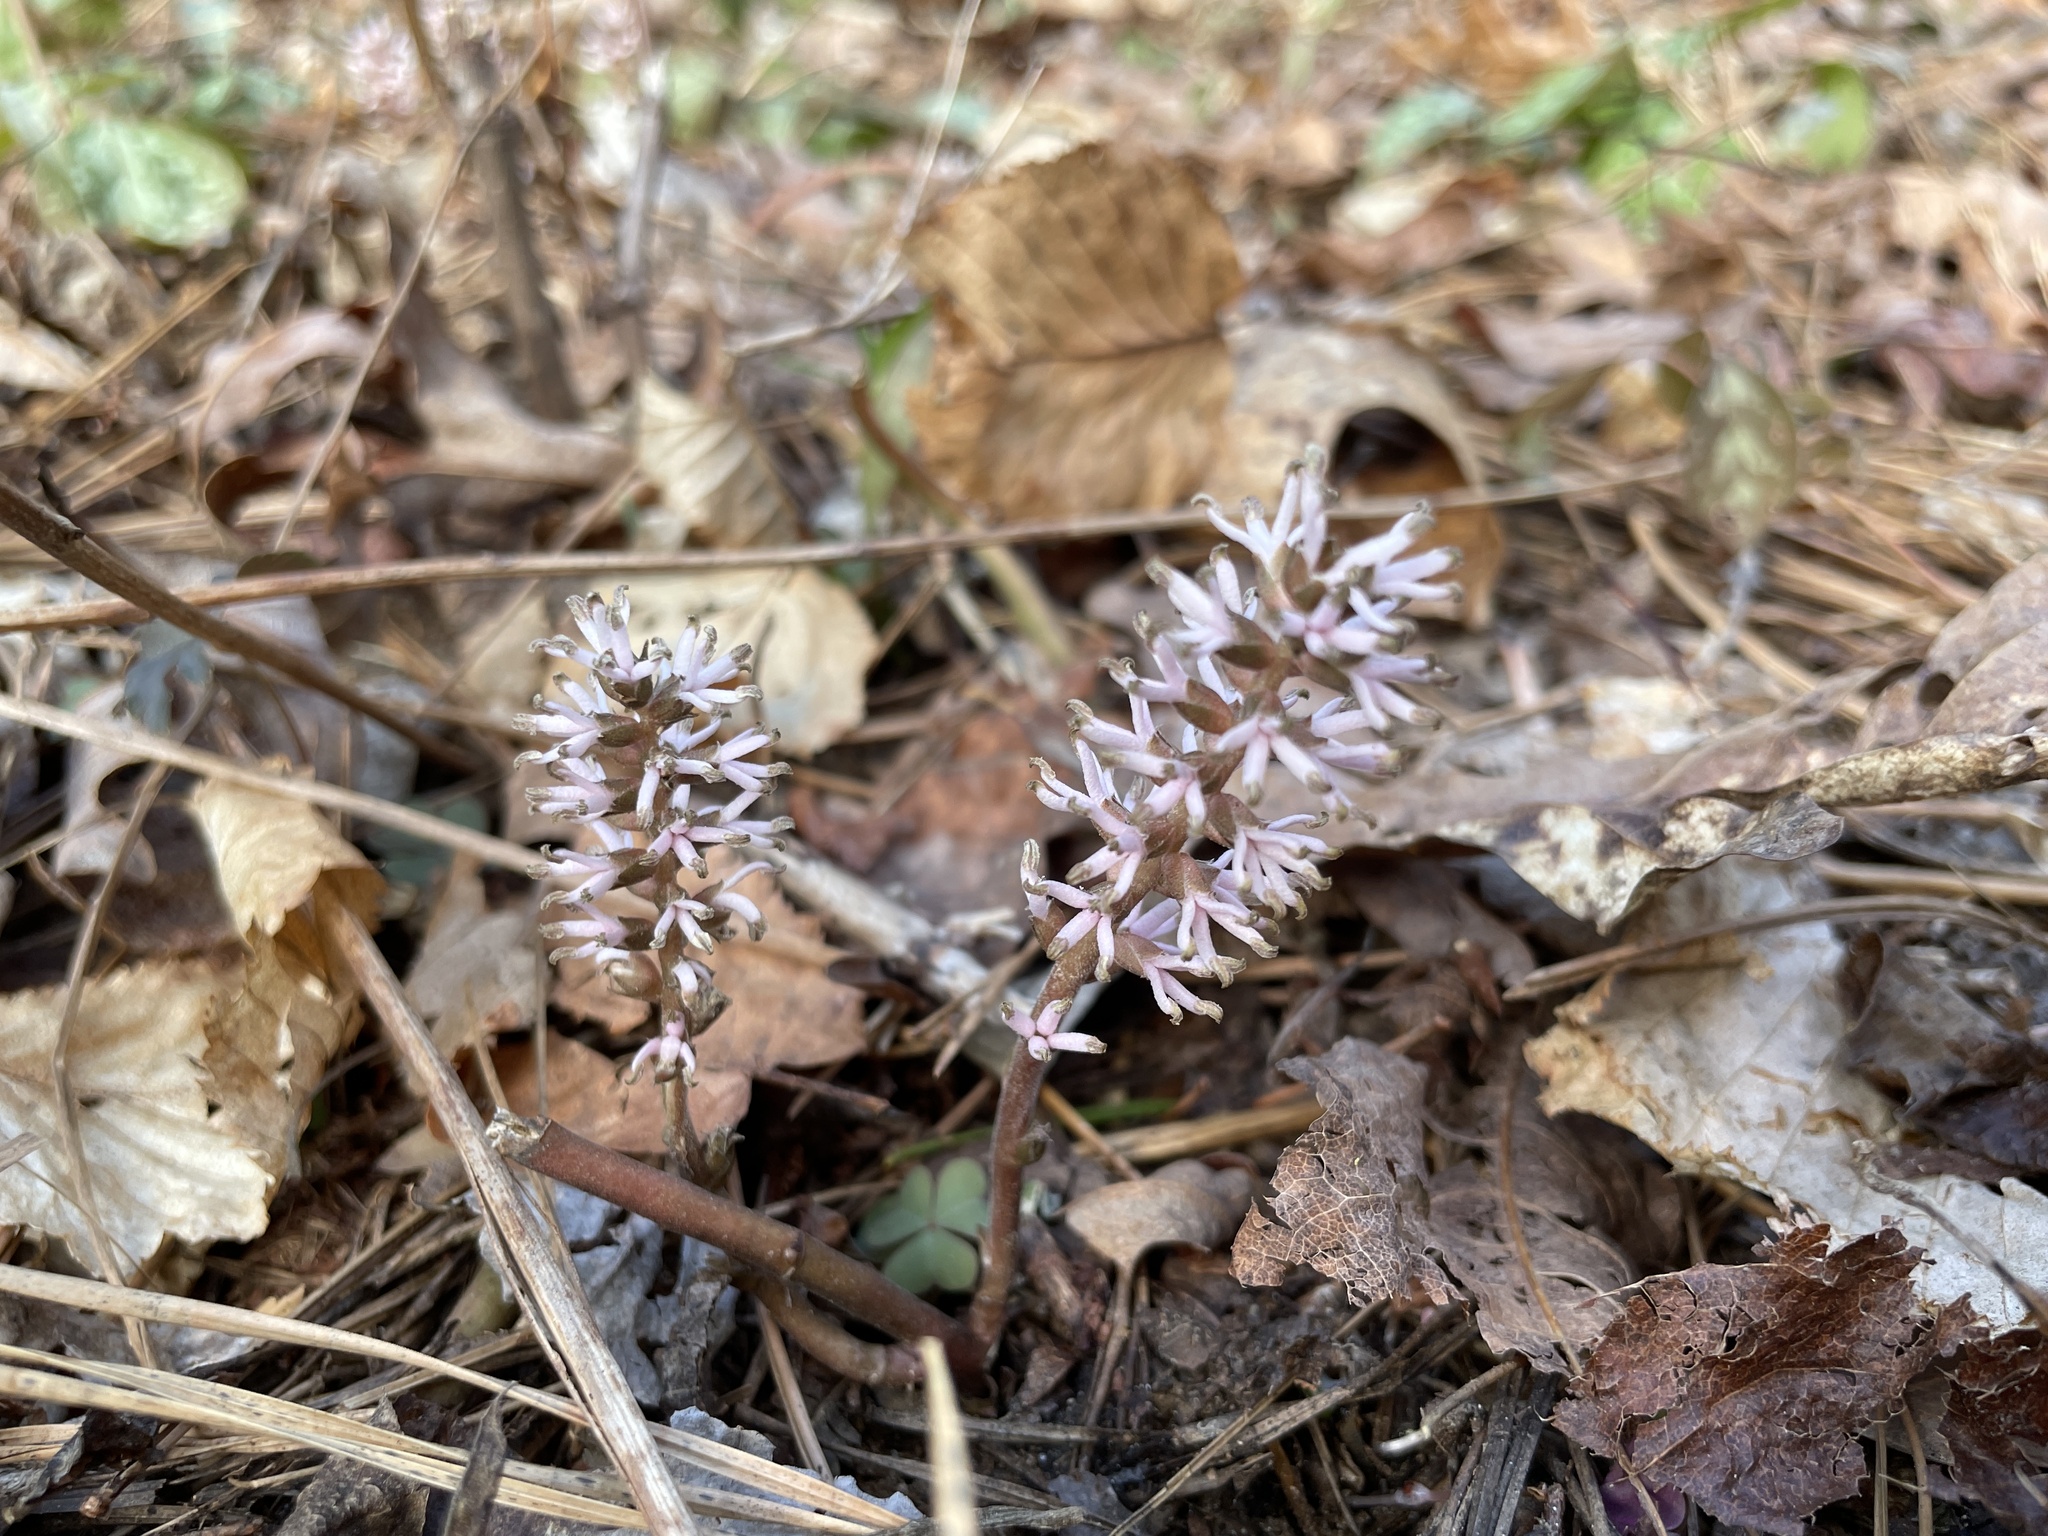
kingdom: Plantae
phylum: Tracheophyta
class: Magnoliopsida
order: Buxales
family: Buxaceae
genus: Pachysandra
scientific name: Pachysandra procumbens
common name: Mountain-spurge
